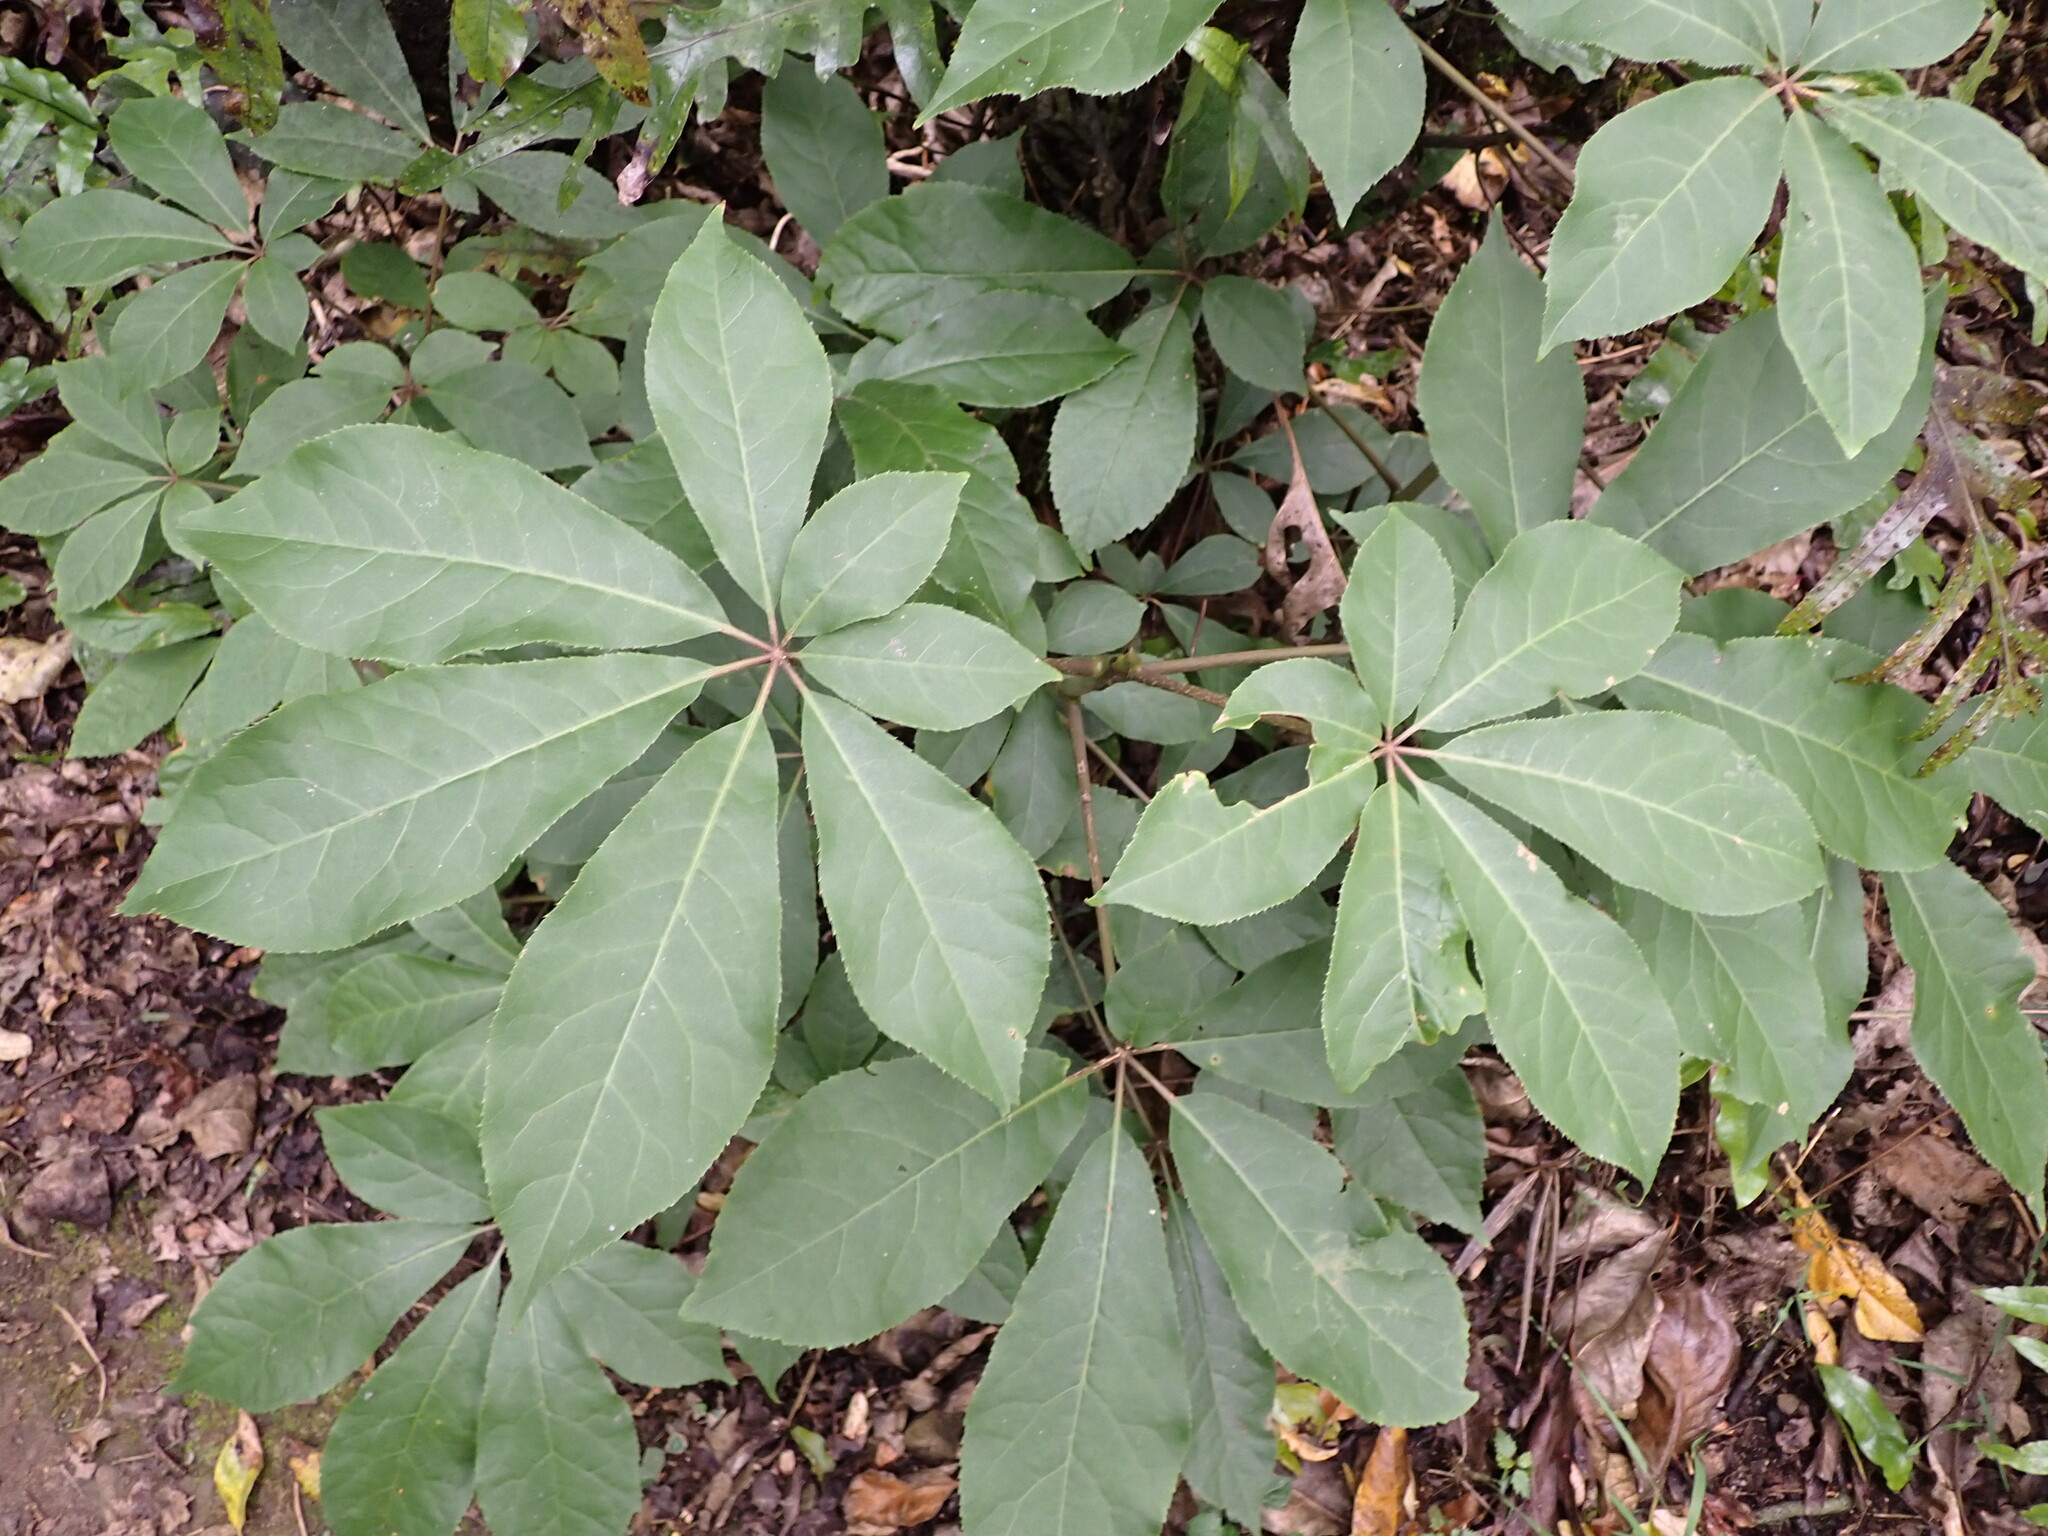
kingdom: Plantae
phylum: Tracheophyta
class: Magnoliopsida
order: Apiales
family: Araliaceae
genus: Schefflera
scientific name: Schefflera digitata
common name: Pate
